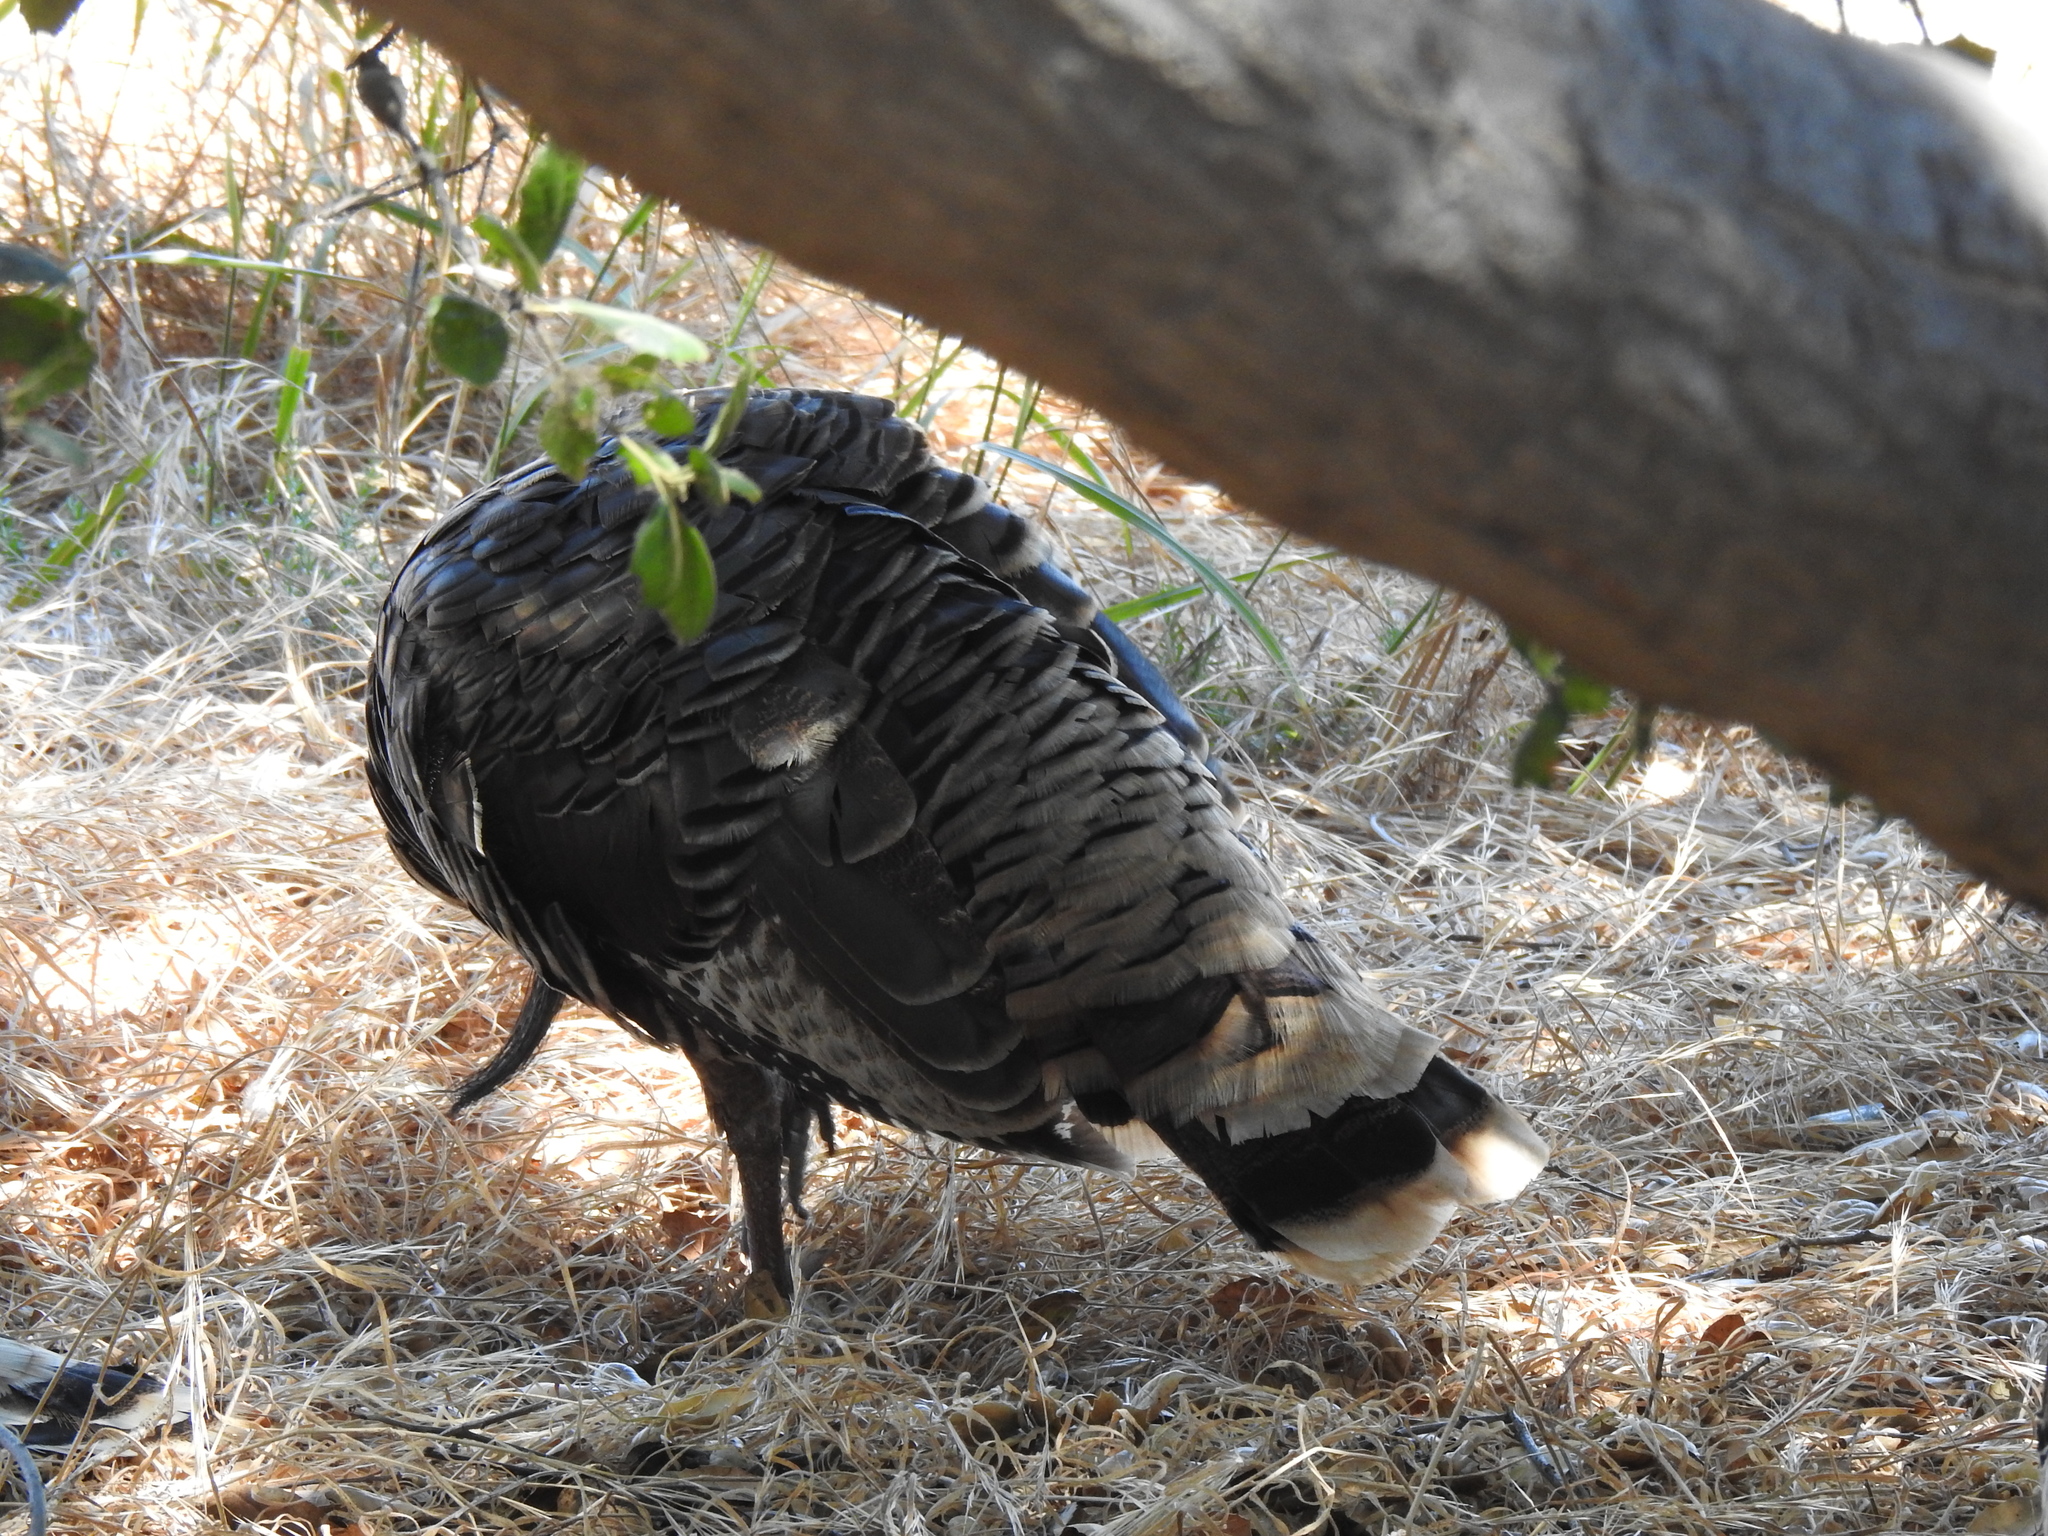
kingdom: Animalia
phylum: Chordata
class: Aves
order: Galliformes
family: Phasianidae
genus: Meleagris
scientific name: Meleagris gallopavo
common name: Wild turkey
